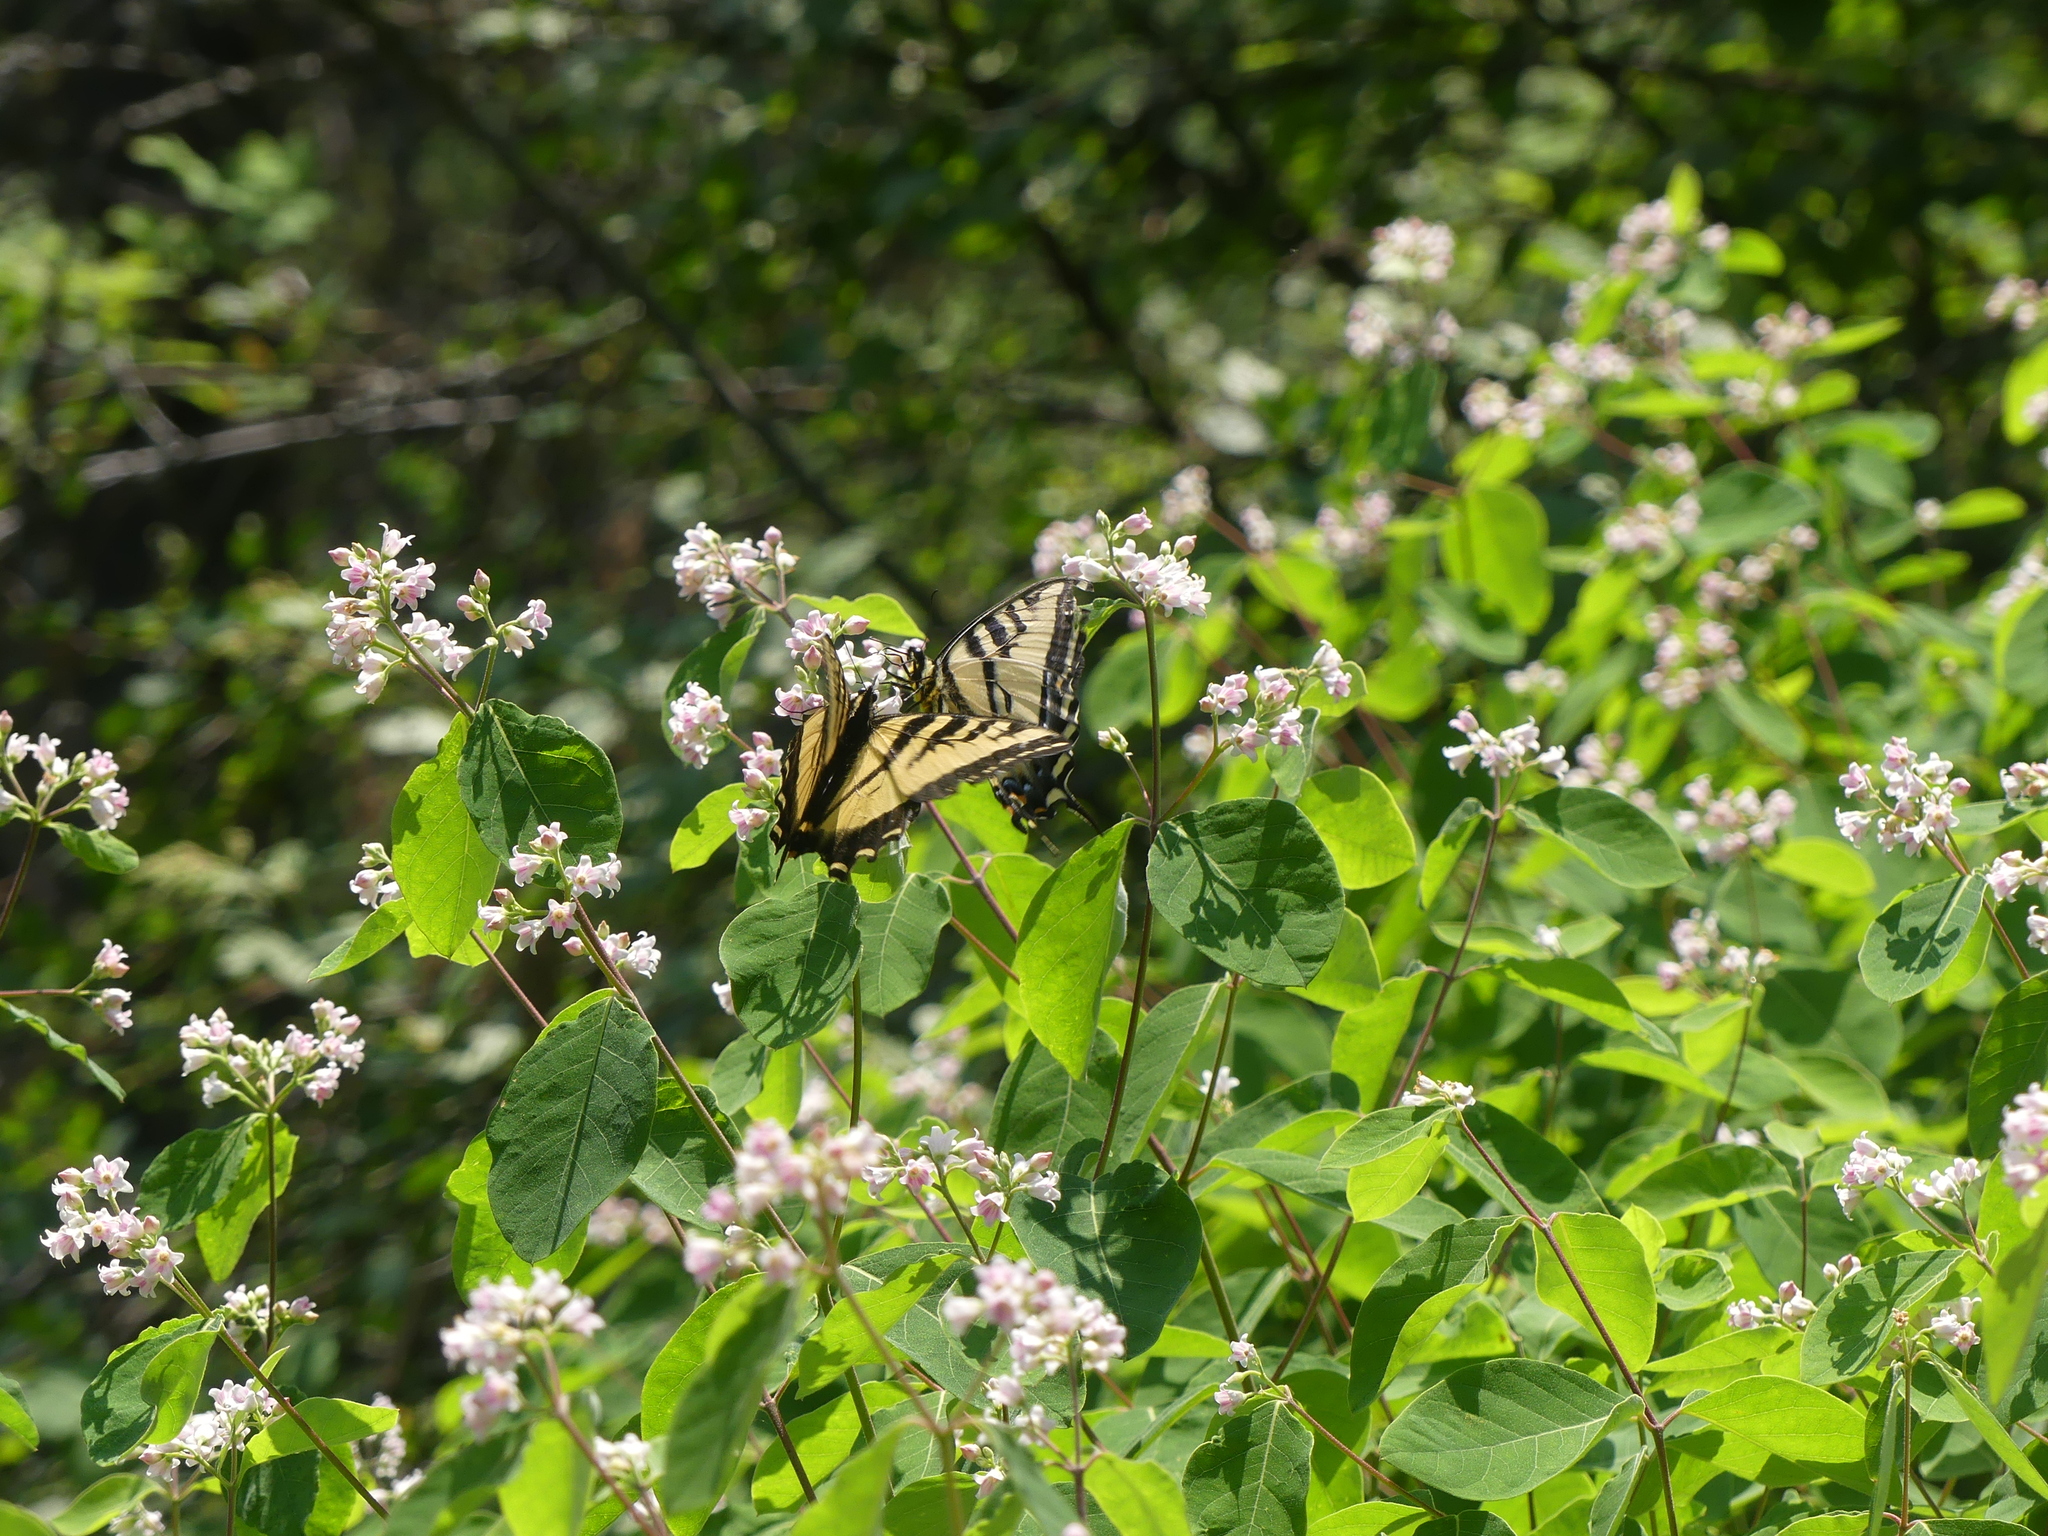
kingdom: Animalia
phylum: Arthropoda
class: Insecta
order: Lepidoptera
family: Papilionidae
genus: Papilio
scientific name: Papilio rutulus
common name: Western tiger swallowtail
